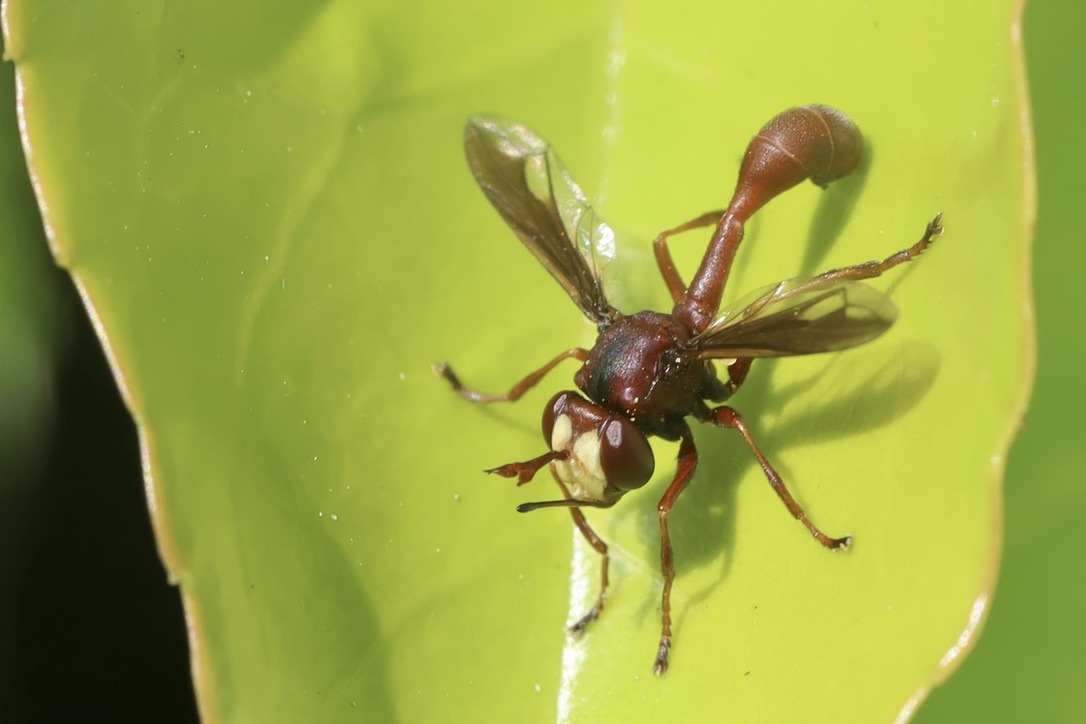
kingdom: Animalia
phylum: Arthropoda
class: Insecta
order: Diptera
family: Conopidae
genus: Physocephala
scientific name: Physocephala burgessi
